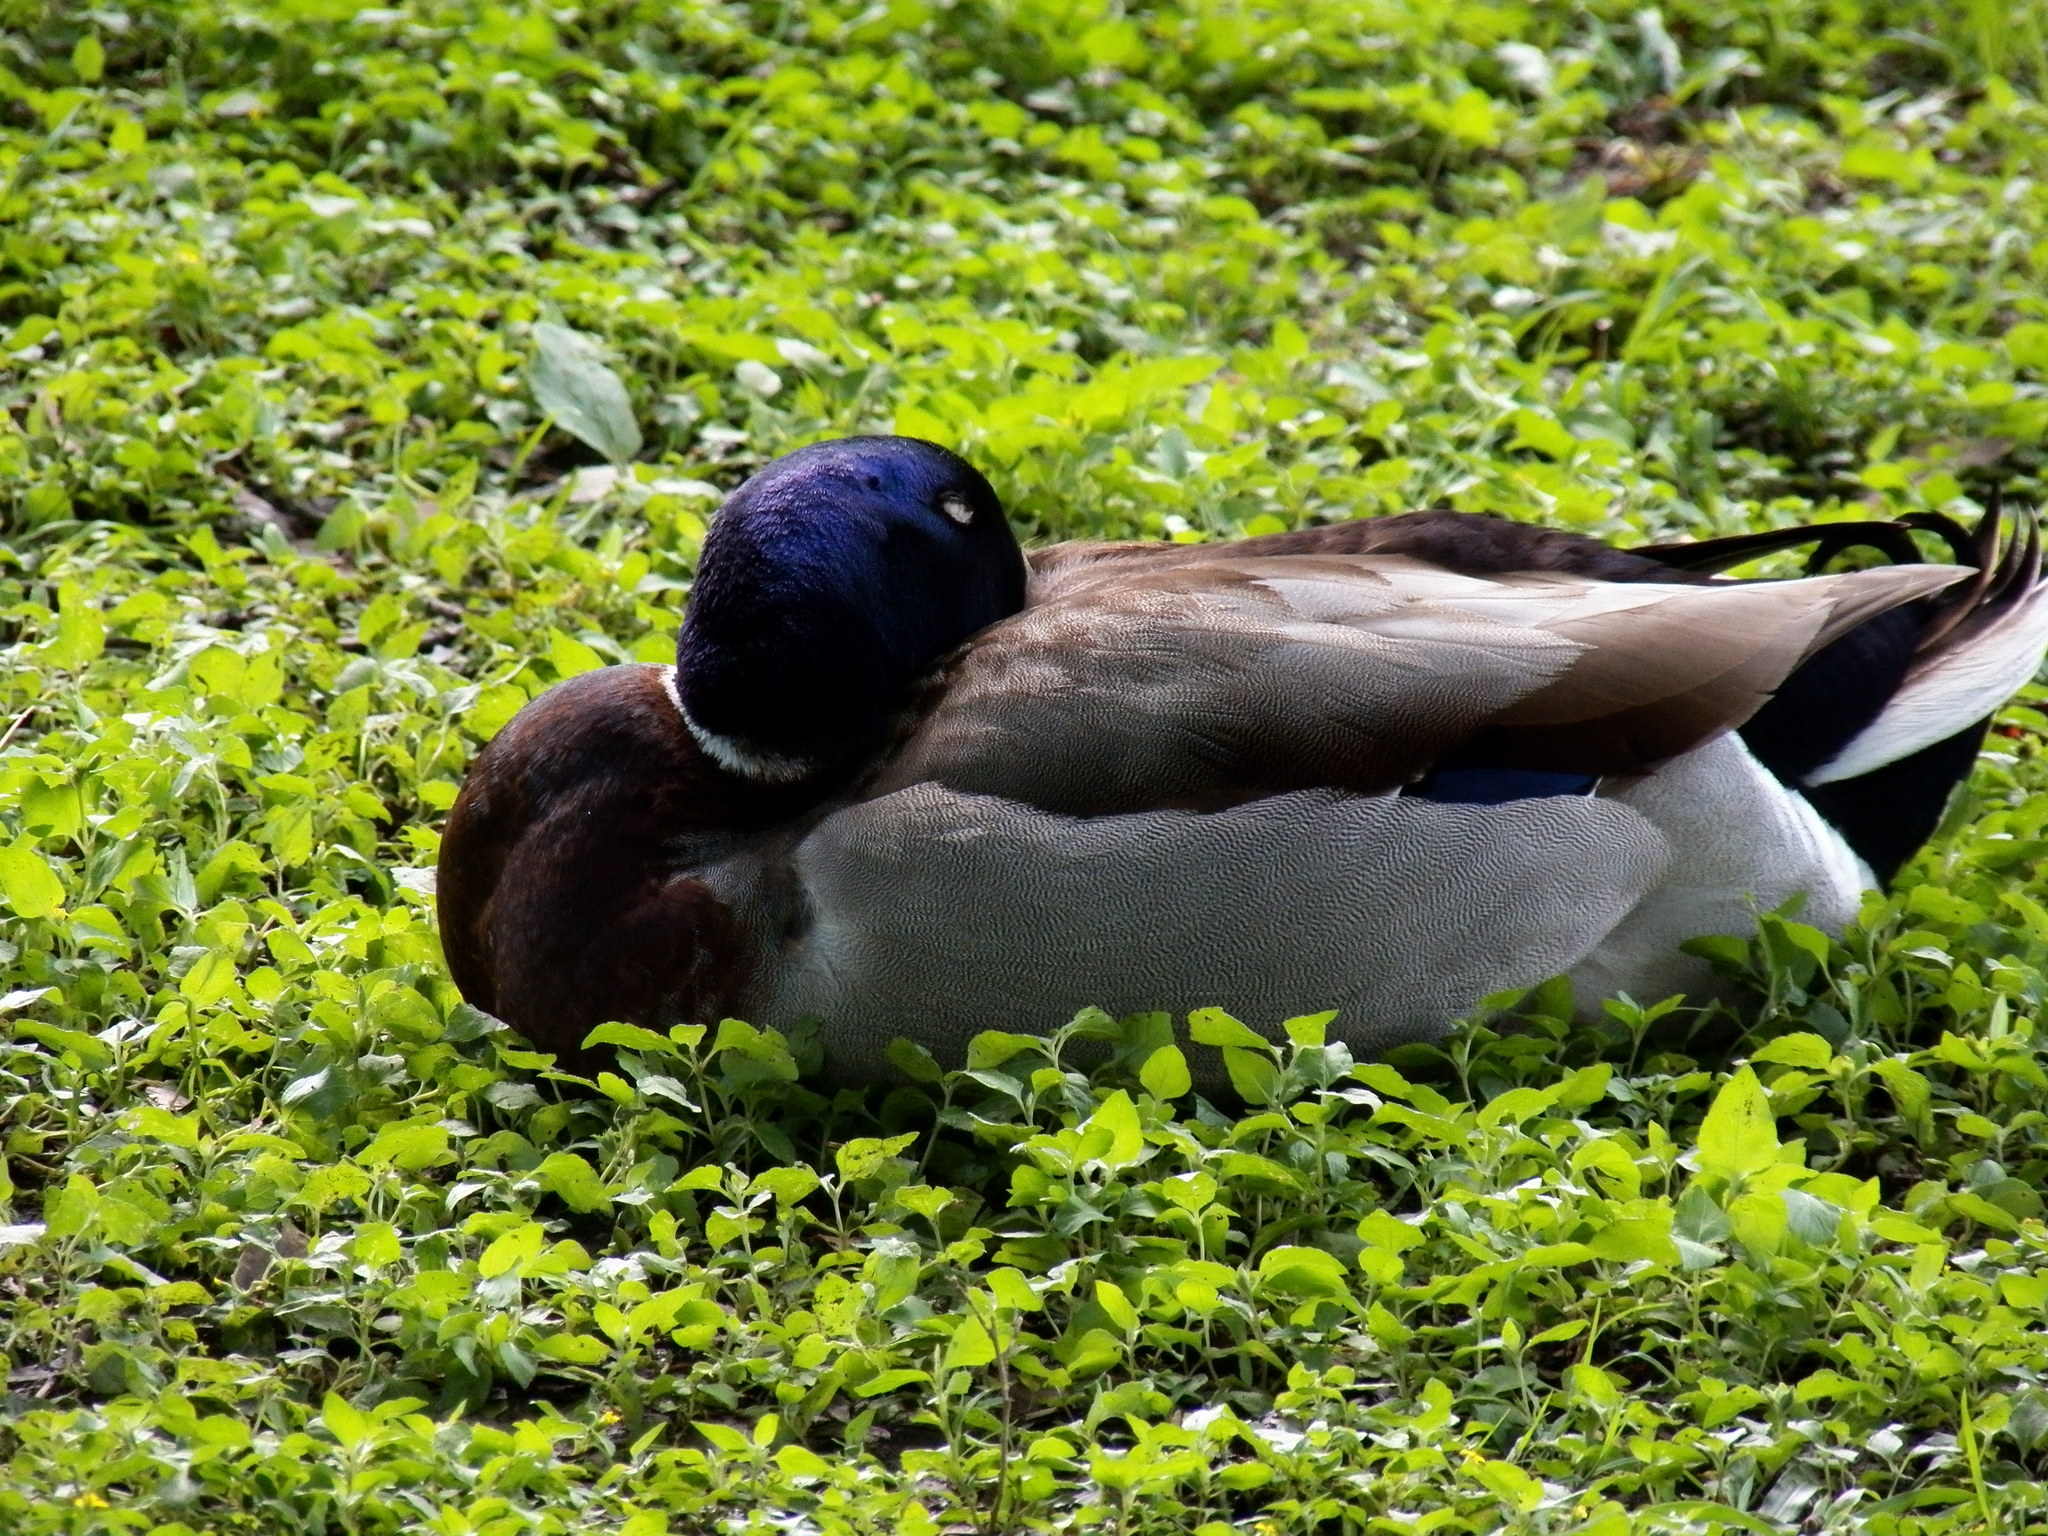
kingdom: Animalia
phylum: Chordata
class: Aves
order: Anseriformes
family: Anatidae
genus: Anas
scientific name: Anas platyrhynchos
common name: Mallard
